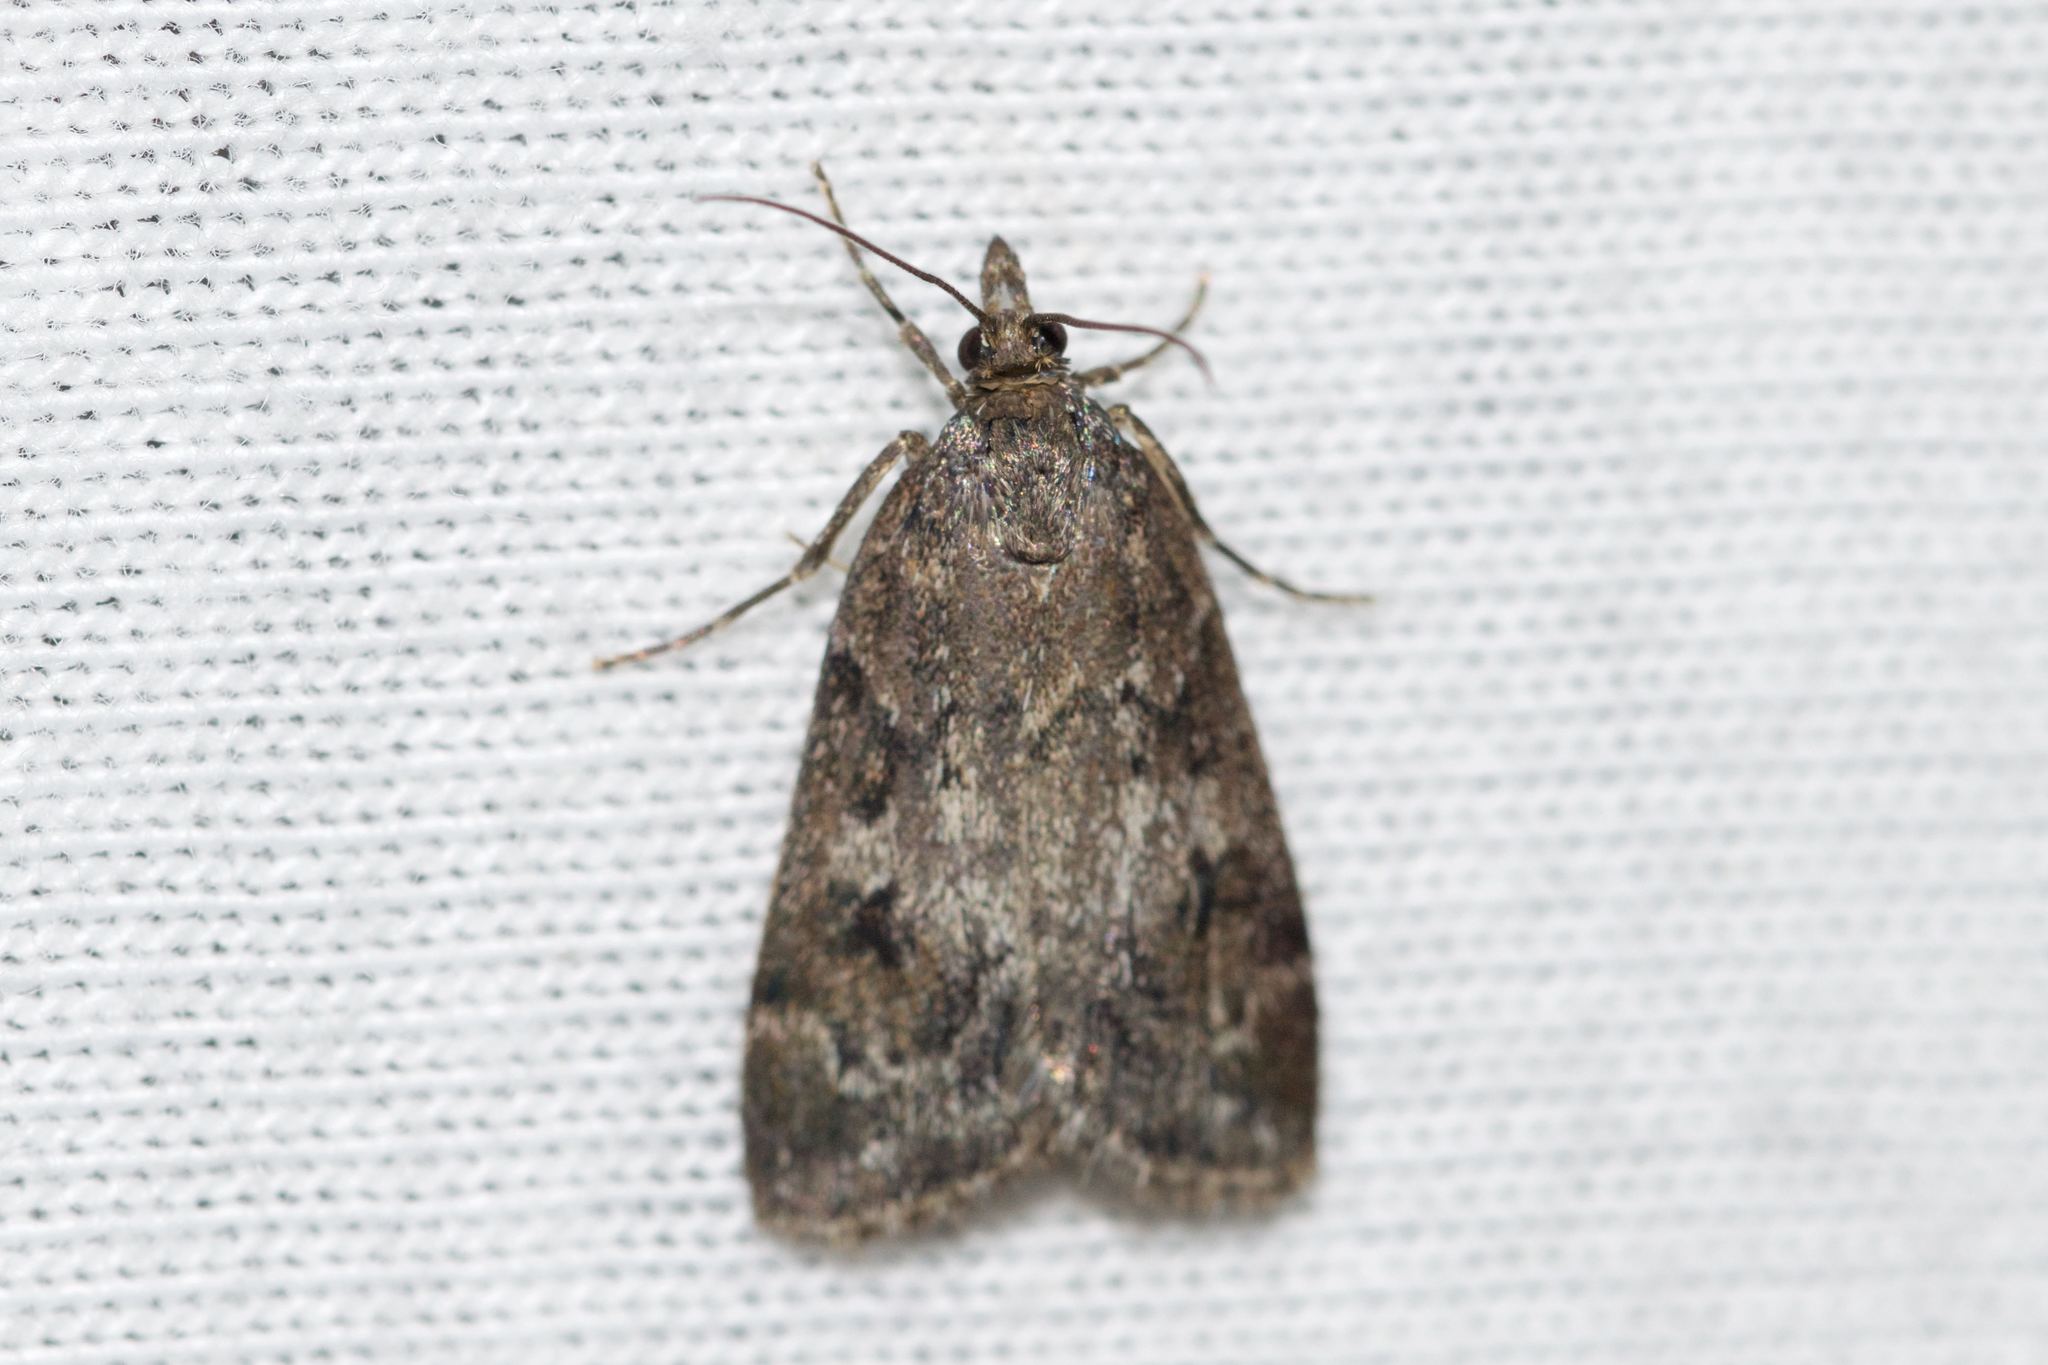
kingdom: Animalia
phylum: Arthropoda
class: Insecta
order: Lepidoptera
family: Crambidae
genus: Gesneria
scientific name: Gesneria centuriella
